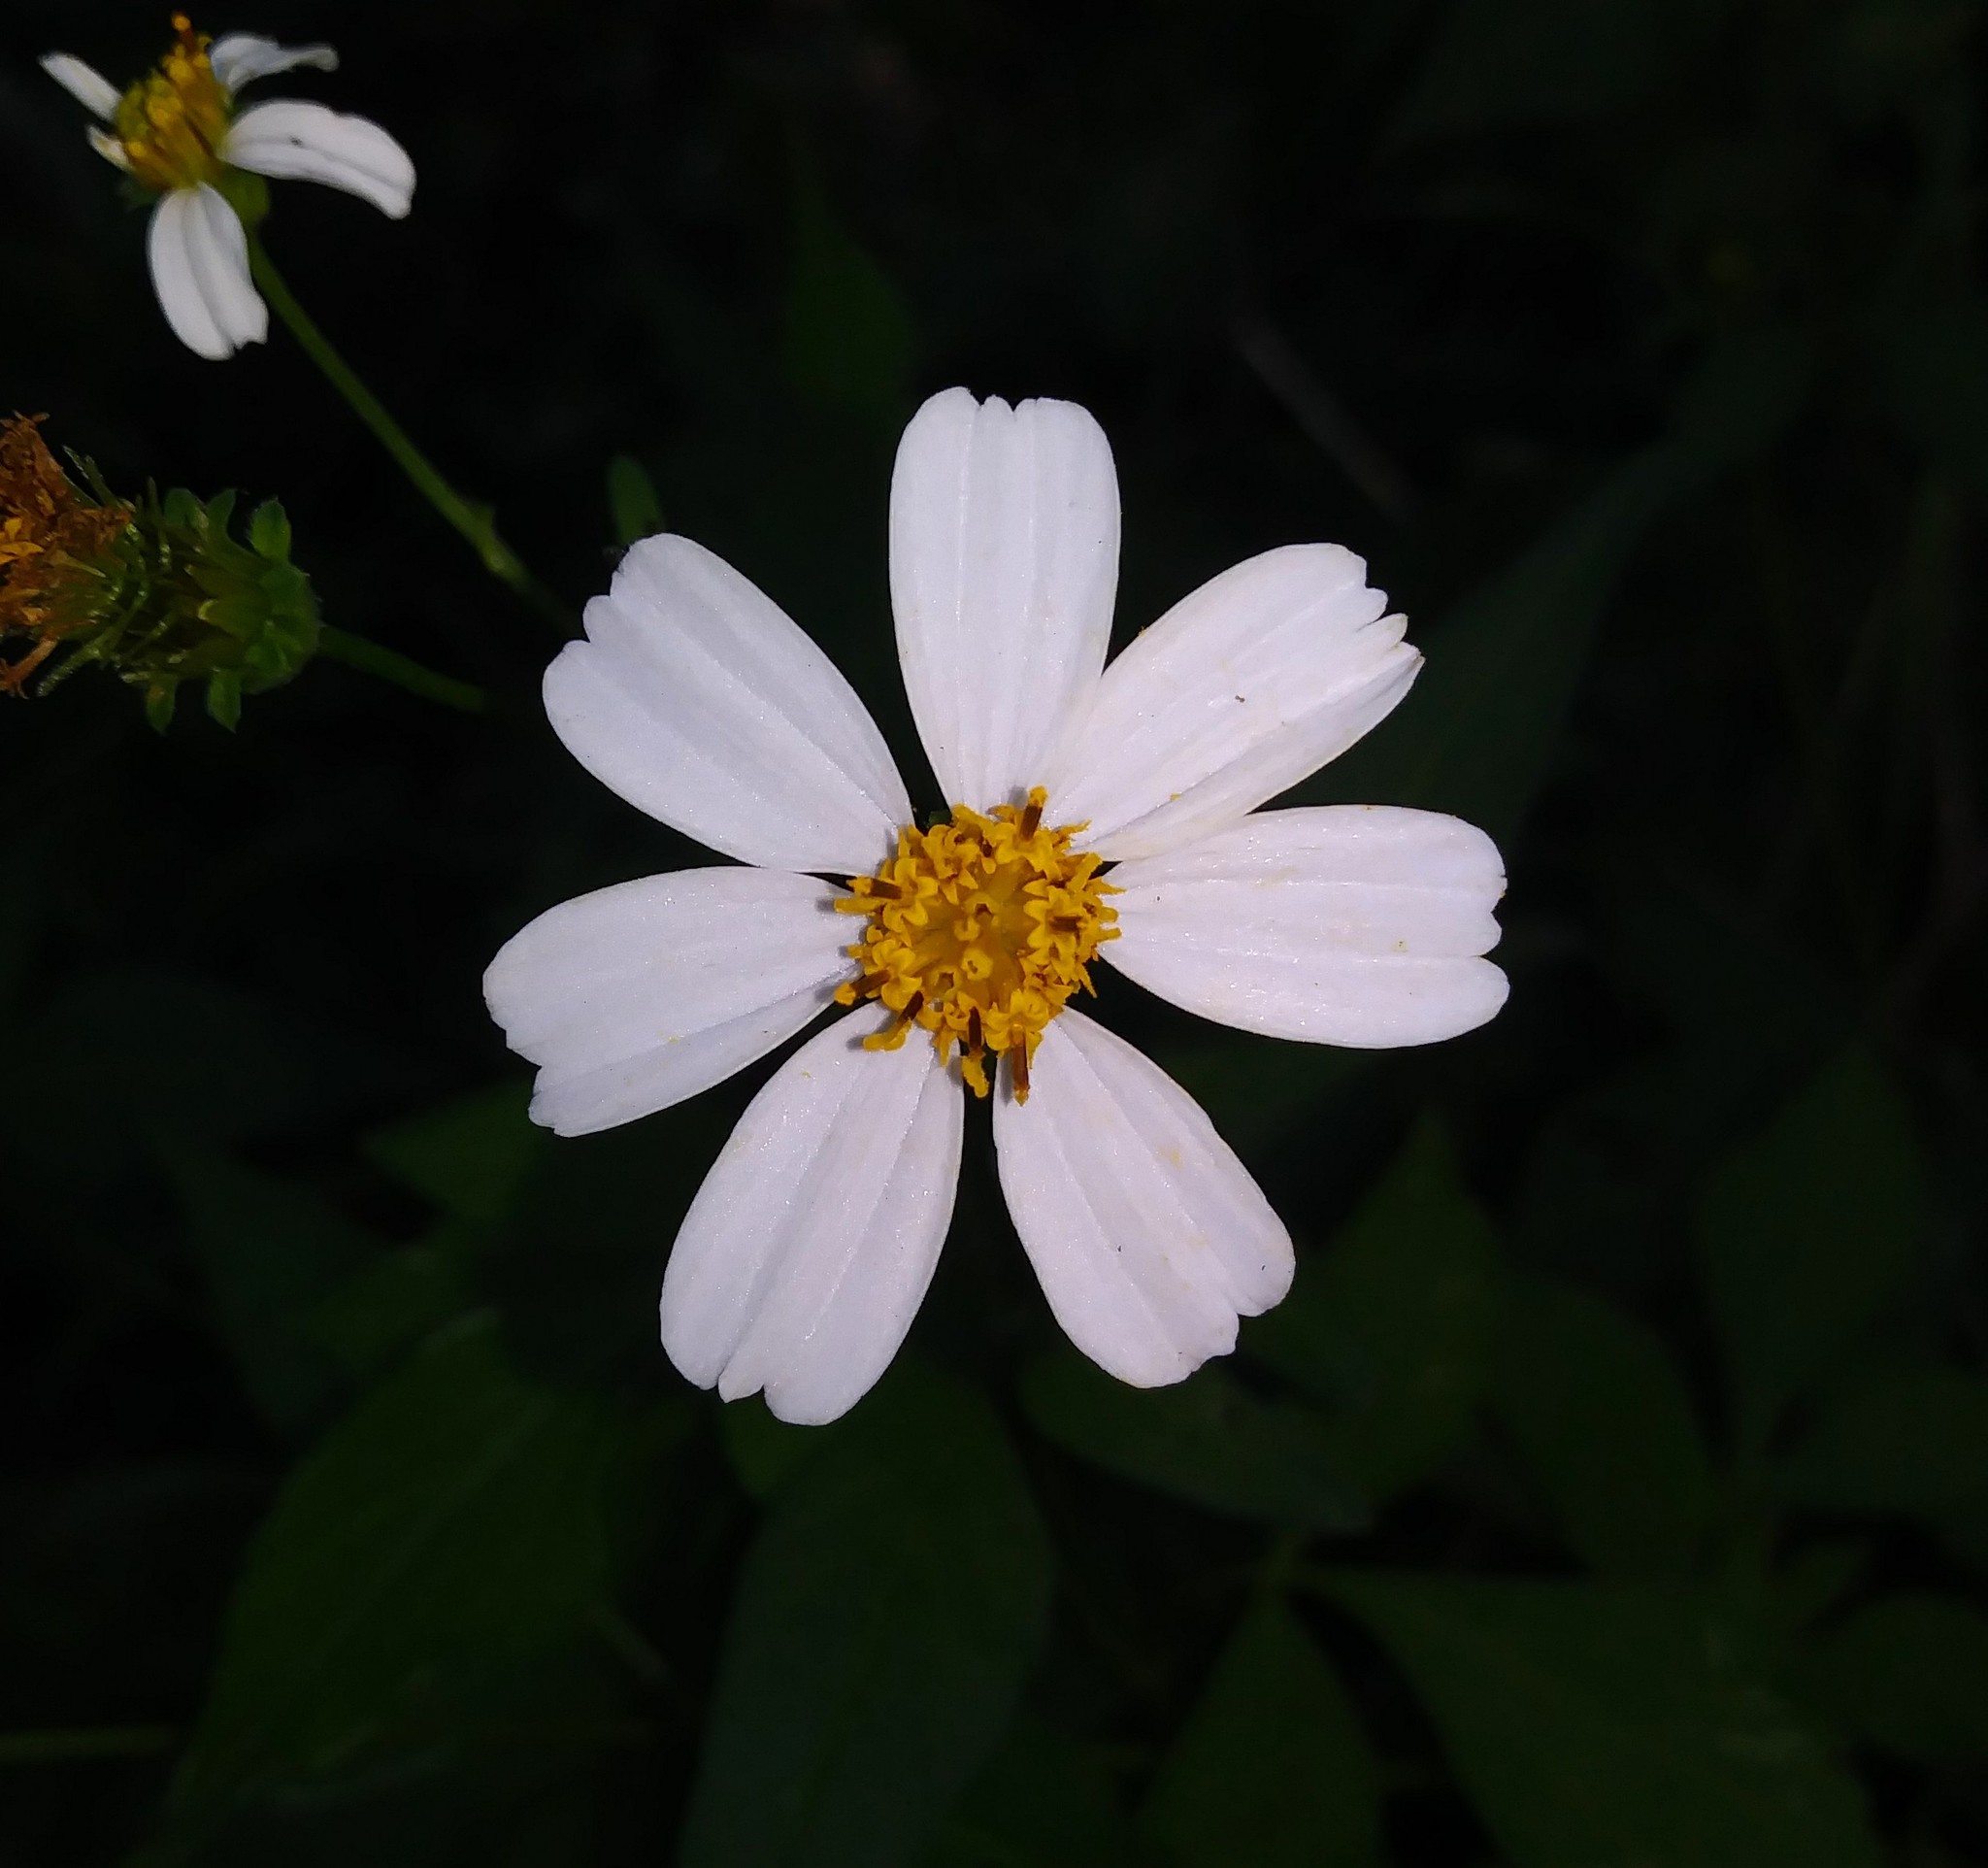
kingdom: Plantae
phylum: Tracheophyta
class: Magnoliopsida
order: Asterales
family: Asteraceae
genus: Bidens
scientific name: Bidens alba
